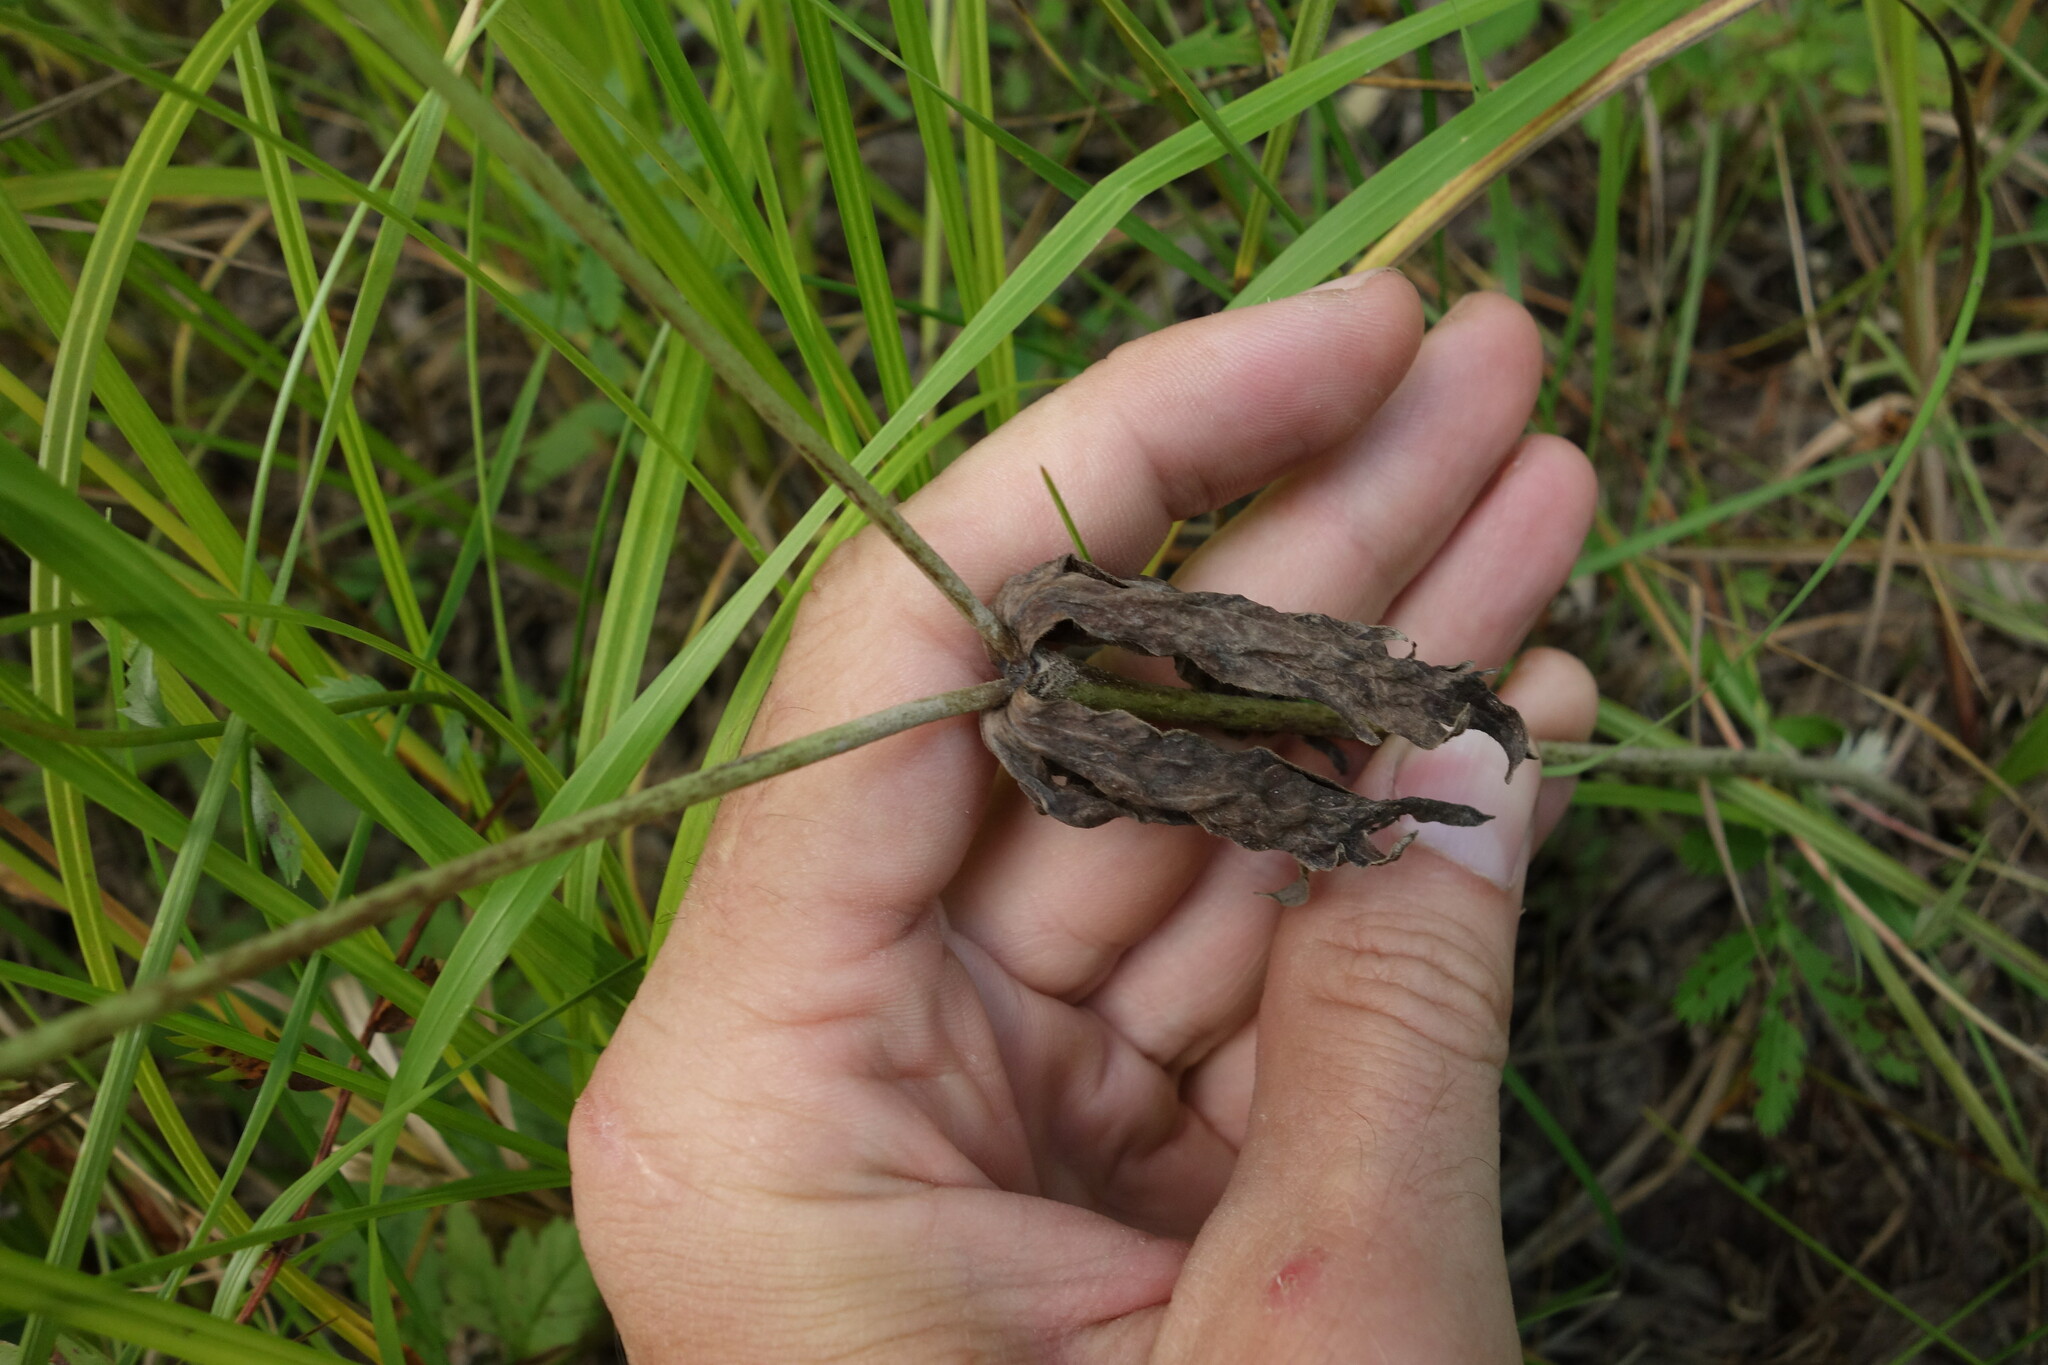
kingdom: Plantae
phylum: Tracheophyta
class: Magnoliopsida
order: Ranunculales
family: Ranunculaceae
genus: Anemonastrum
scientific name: Anemonastrum dichotomum
